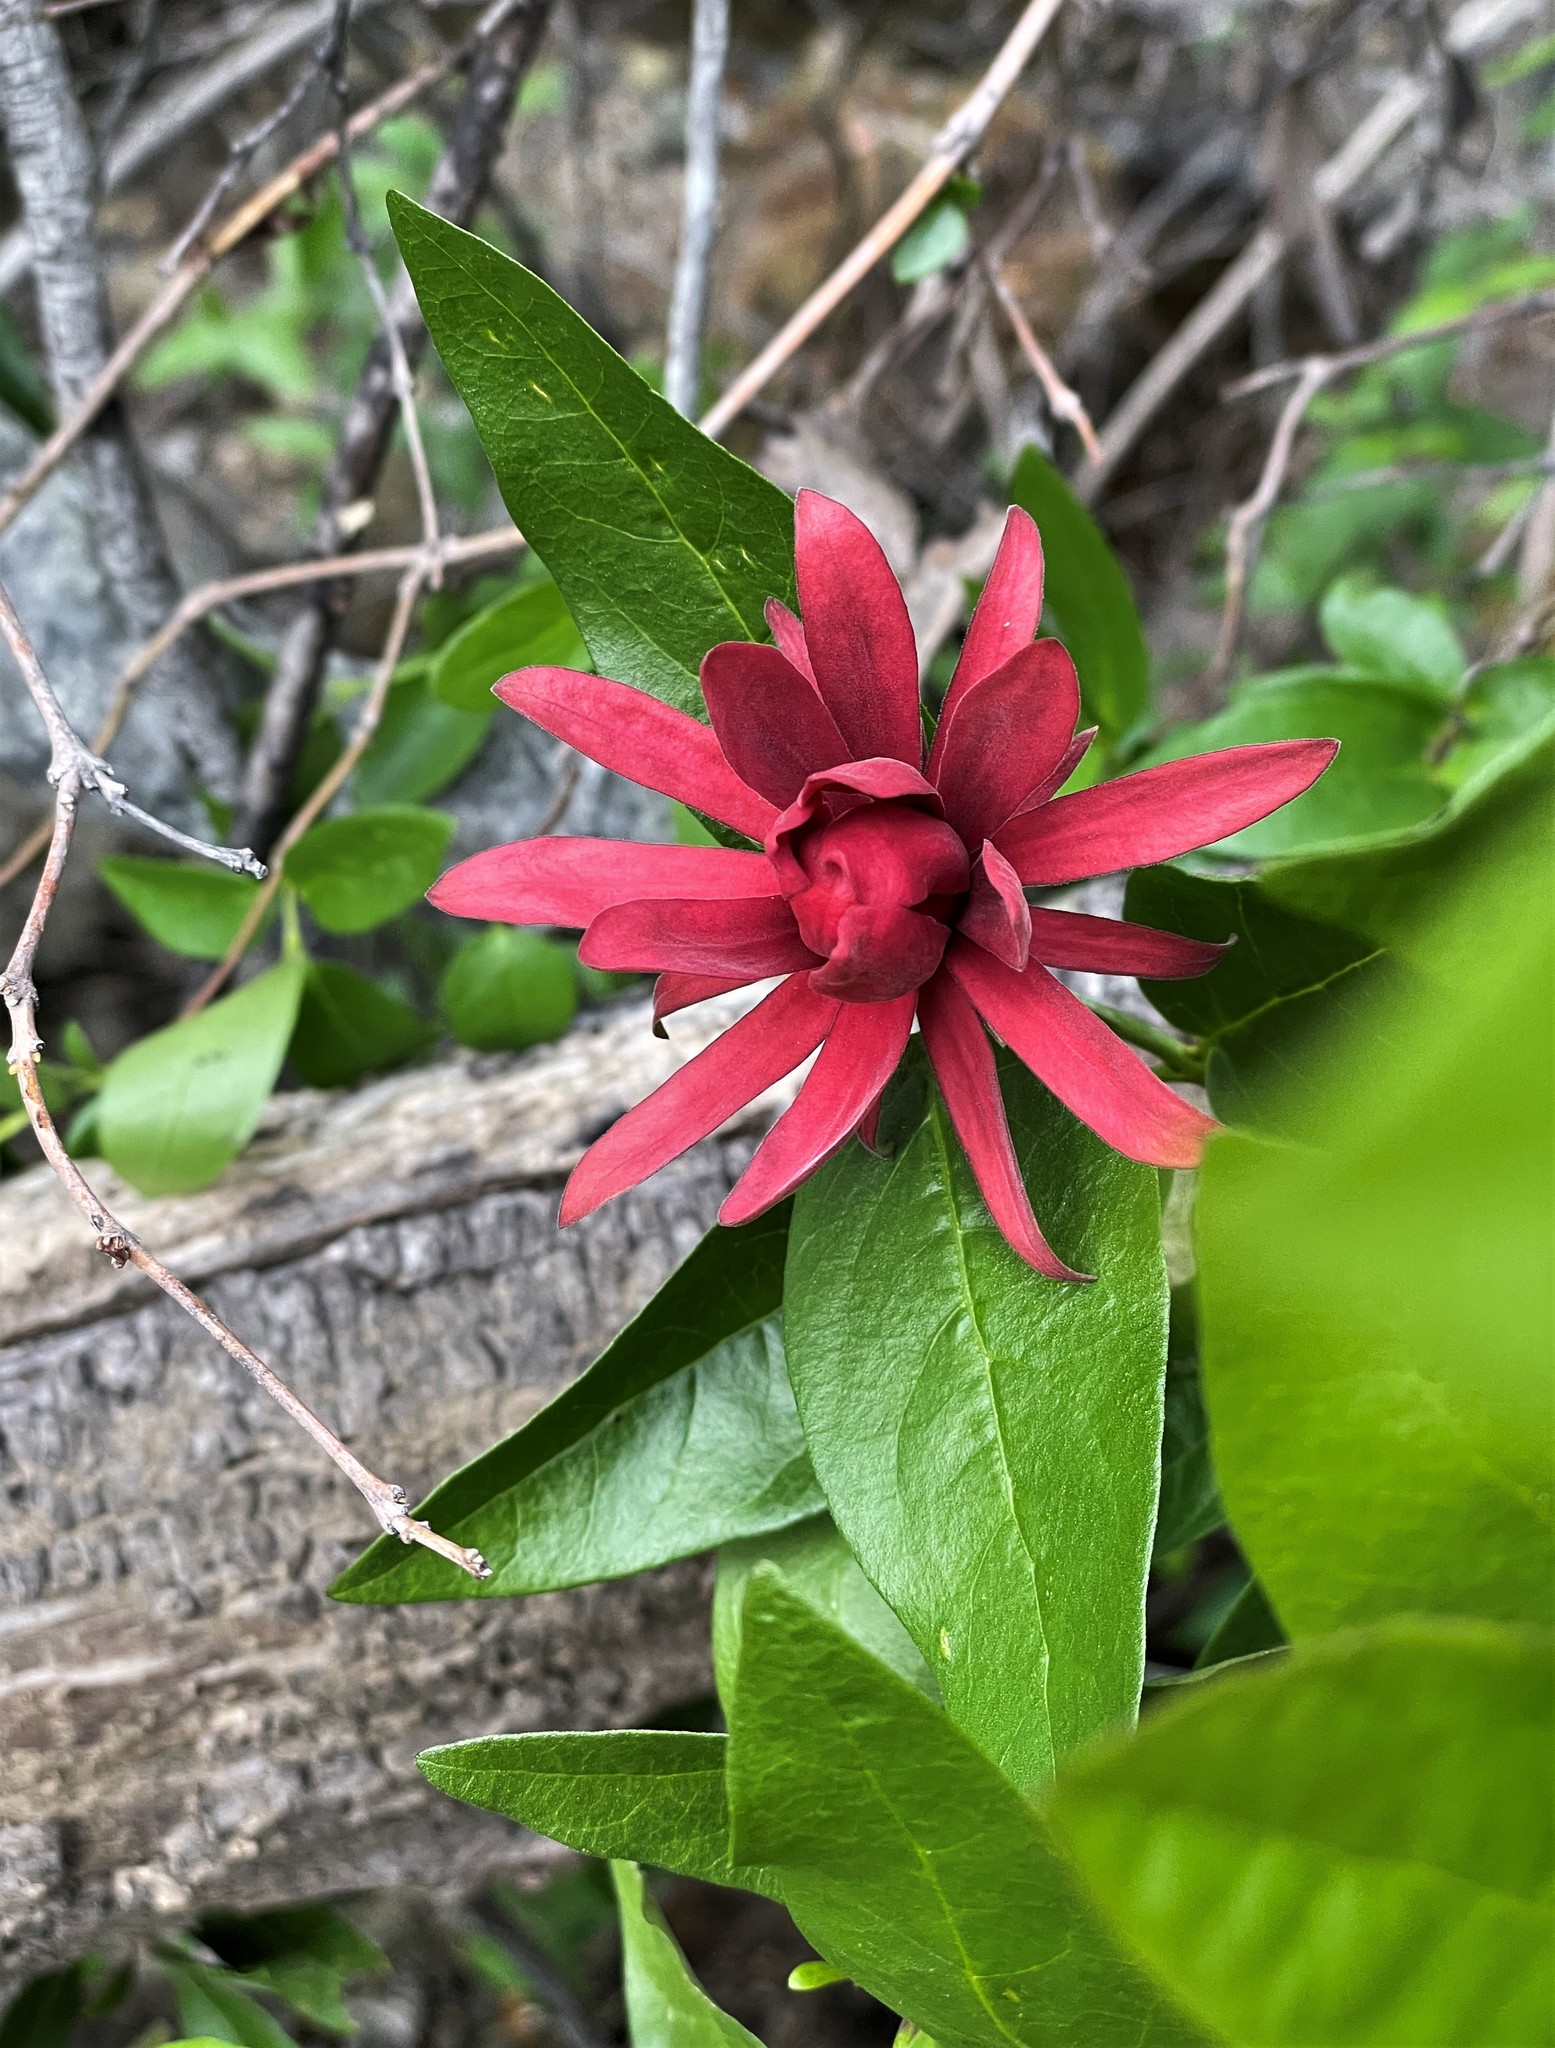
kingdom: Plantae
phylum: Tracheophyta
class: Magnoliopsida
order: Laurales
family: Calycanthaceae
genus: Calycanthus
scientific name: Calycanthus occidentalis
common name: California spicebush
